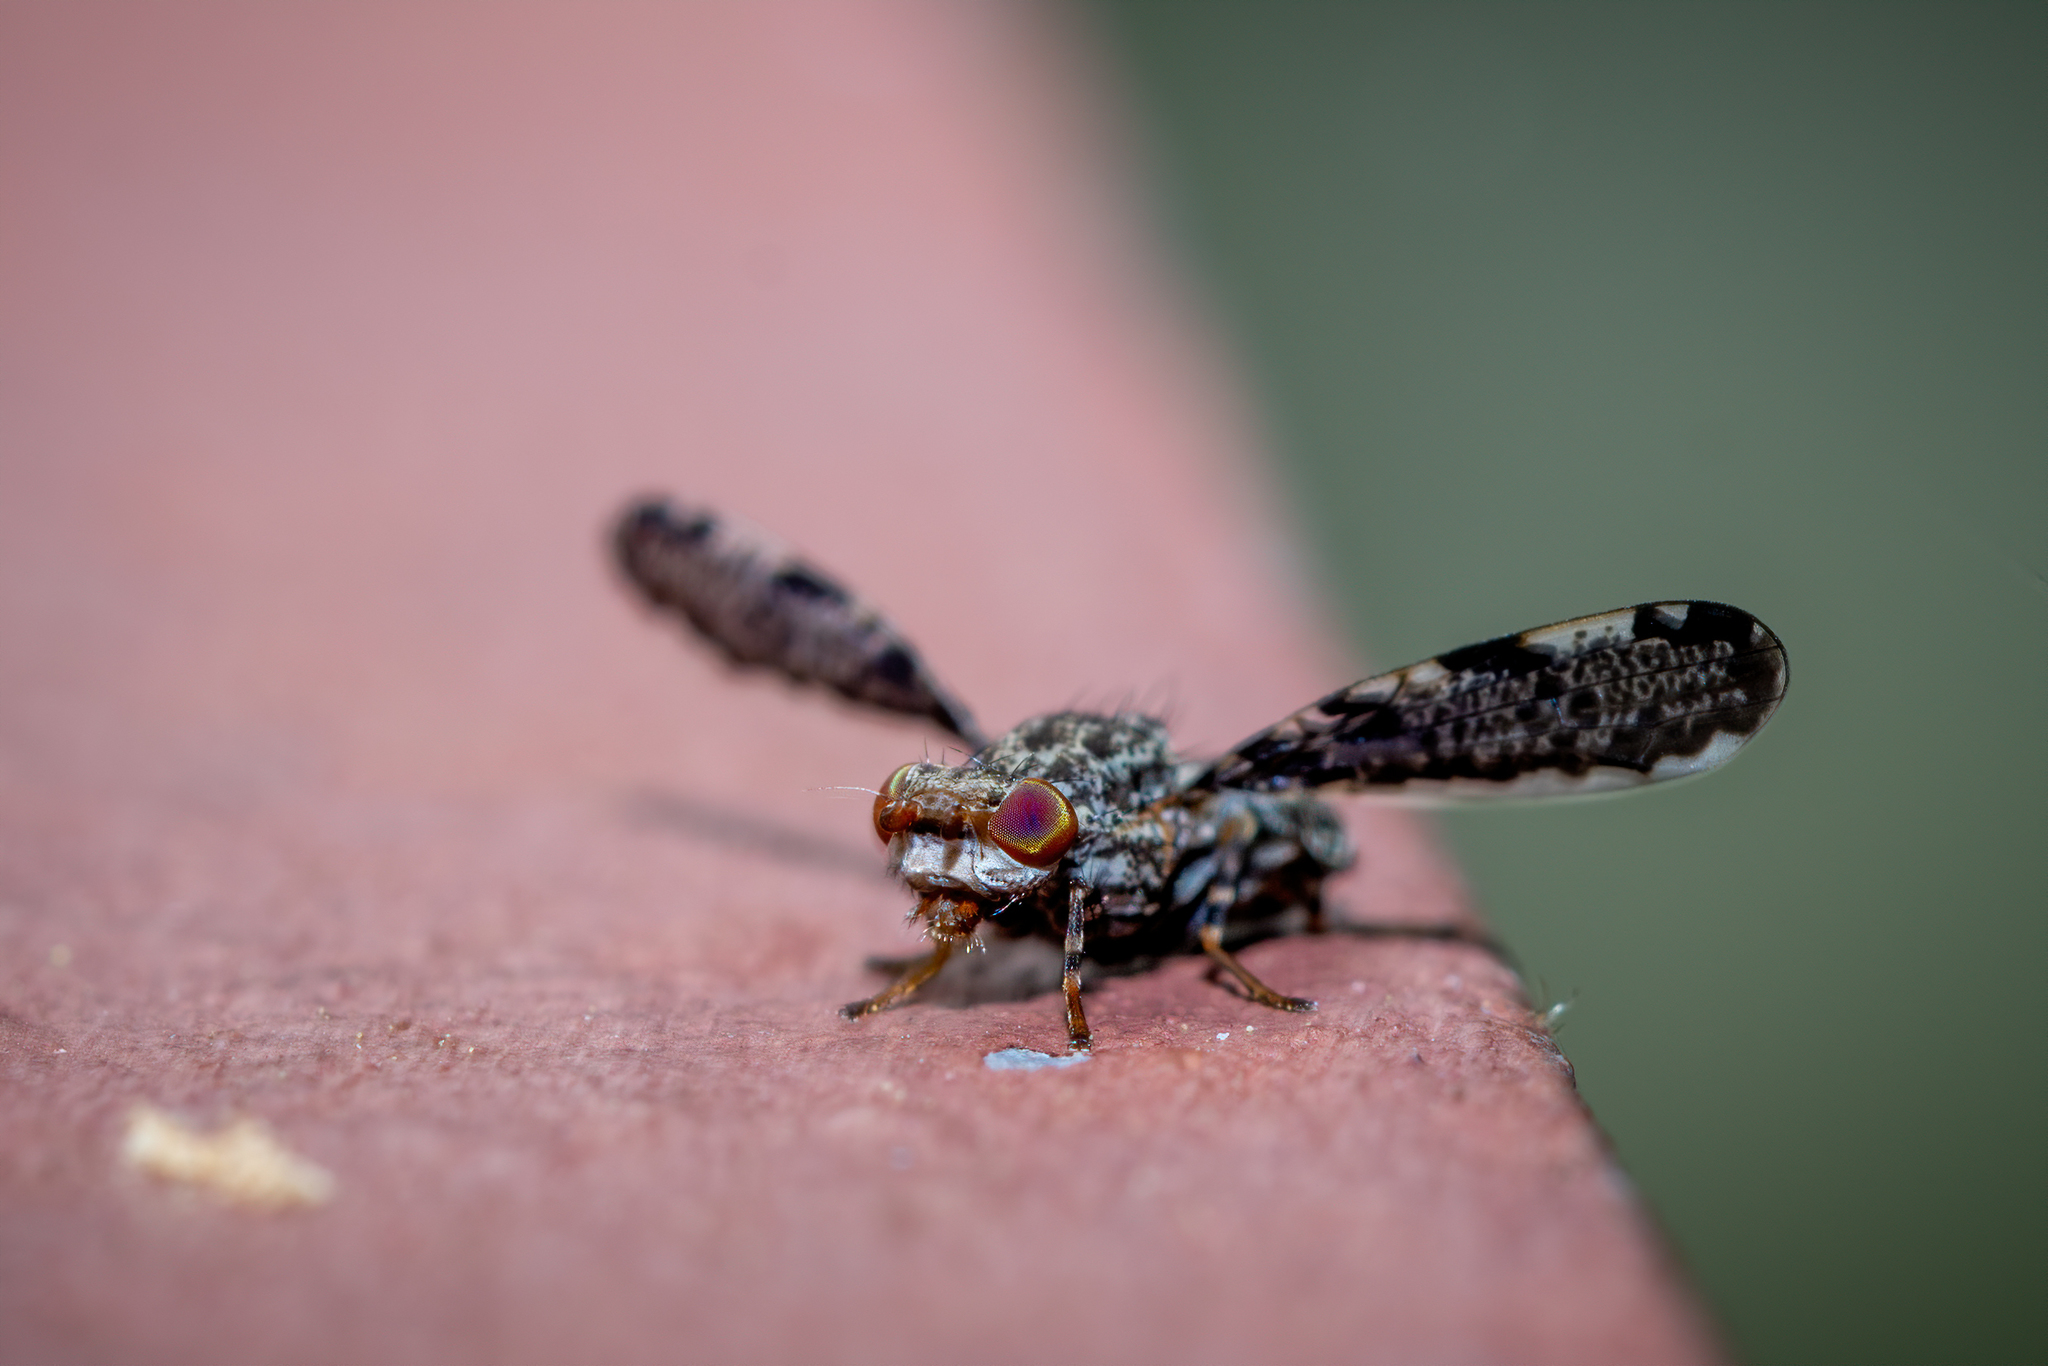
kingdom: Animalia
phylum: Arthropoda
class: Insecta
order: Diptera
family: Ulidiidae
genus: Callopistromyia
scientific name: Callopistromyia strigula
